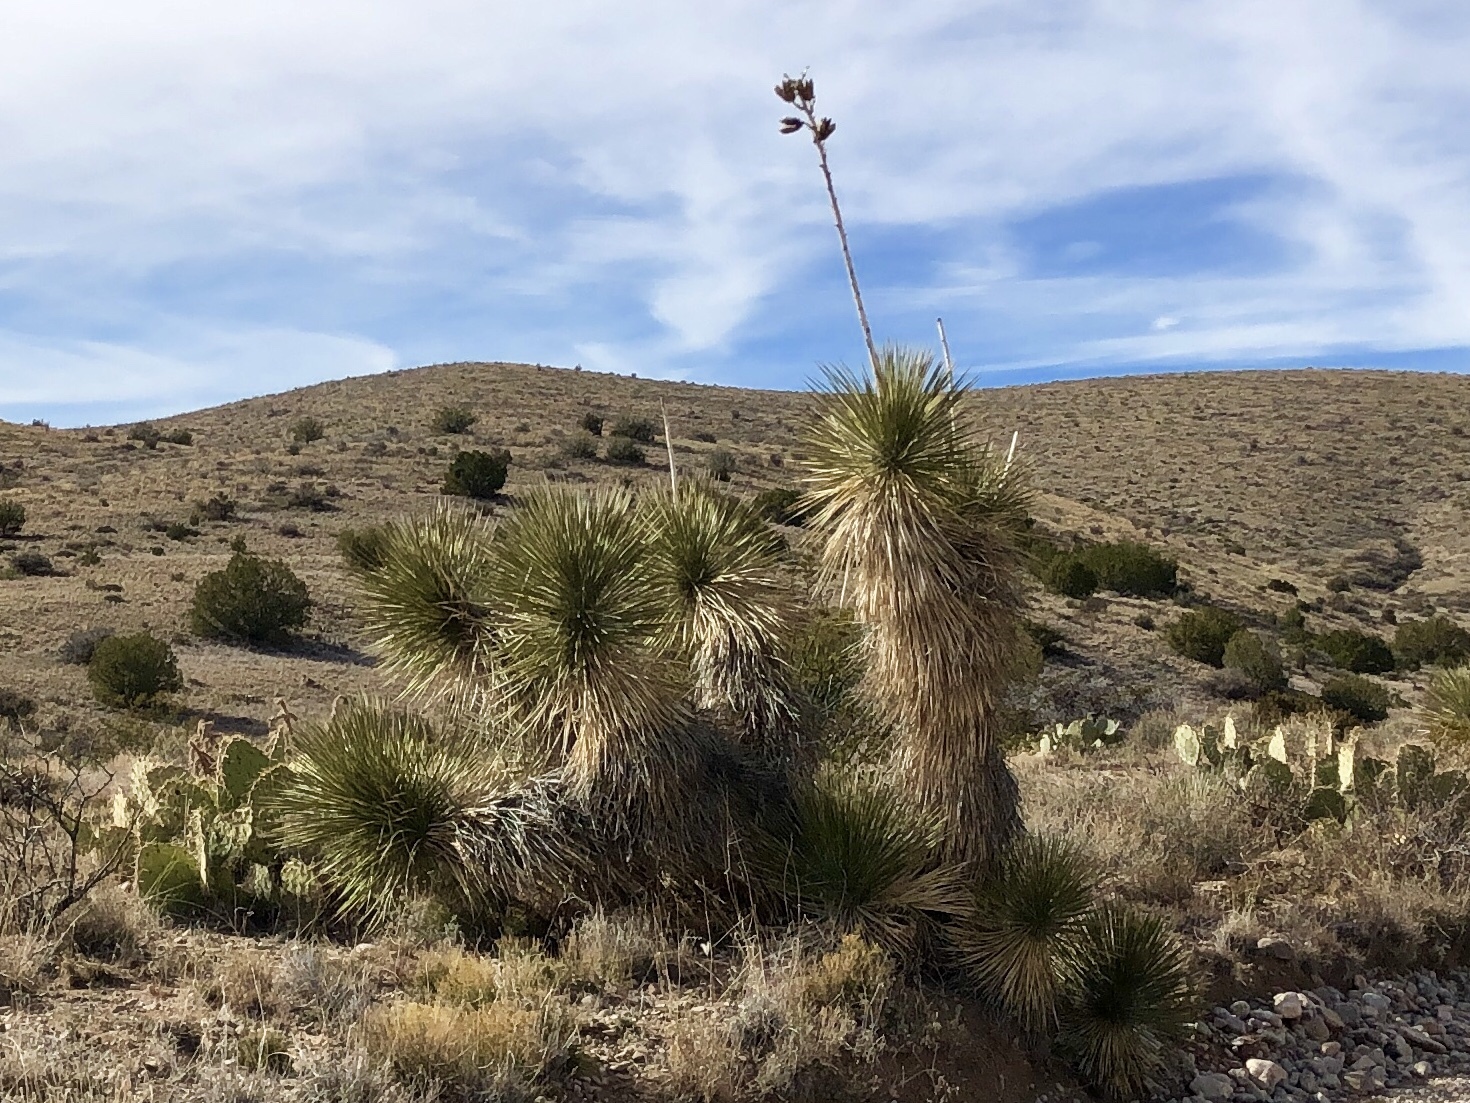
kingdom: Plantae
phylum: Tracheophyta
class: Liliopsida
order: Asparagales
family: Asparagaceae
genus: Yucca
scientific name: Yucca elata
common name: Palmella
